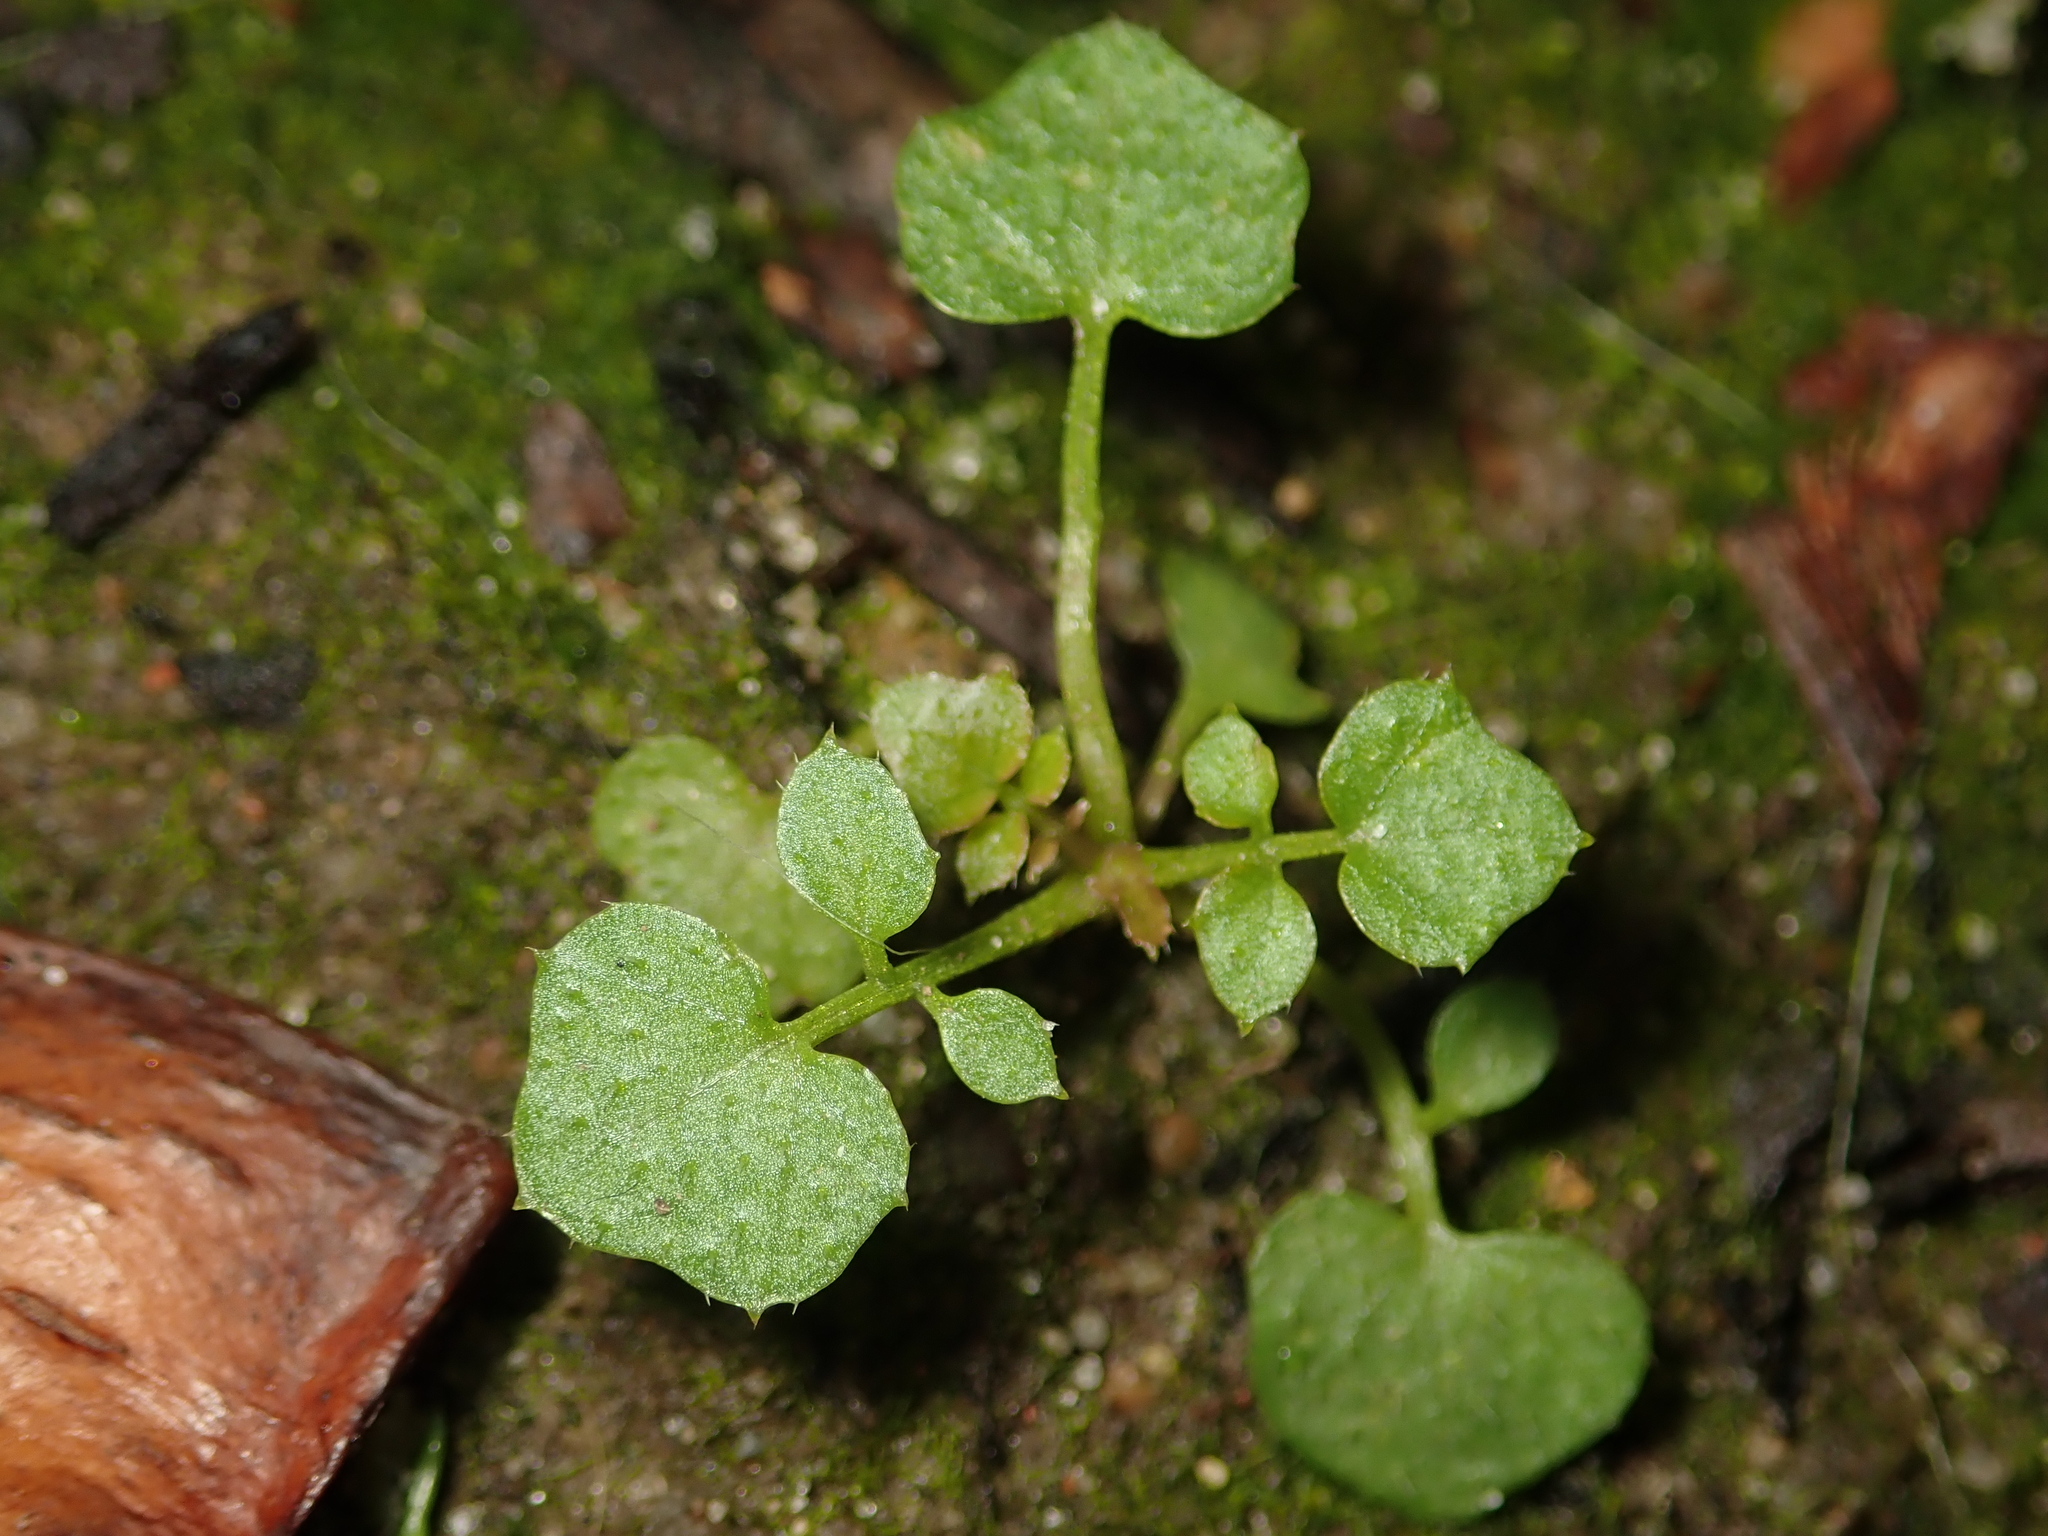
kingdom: Plantae
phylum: Tracheophyta
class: Magnoliopsida
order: Brassicales
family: Brassicaceae
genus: Cardamine
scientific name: Cardamine hirsuta
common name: Hairy bittercress
